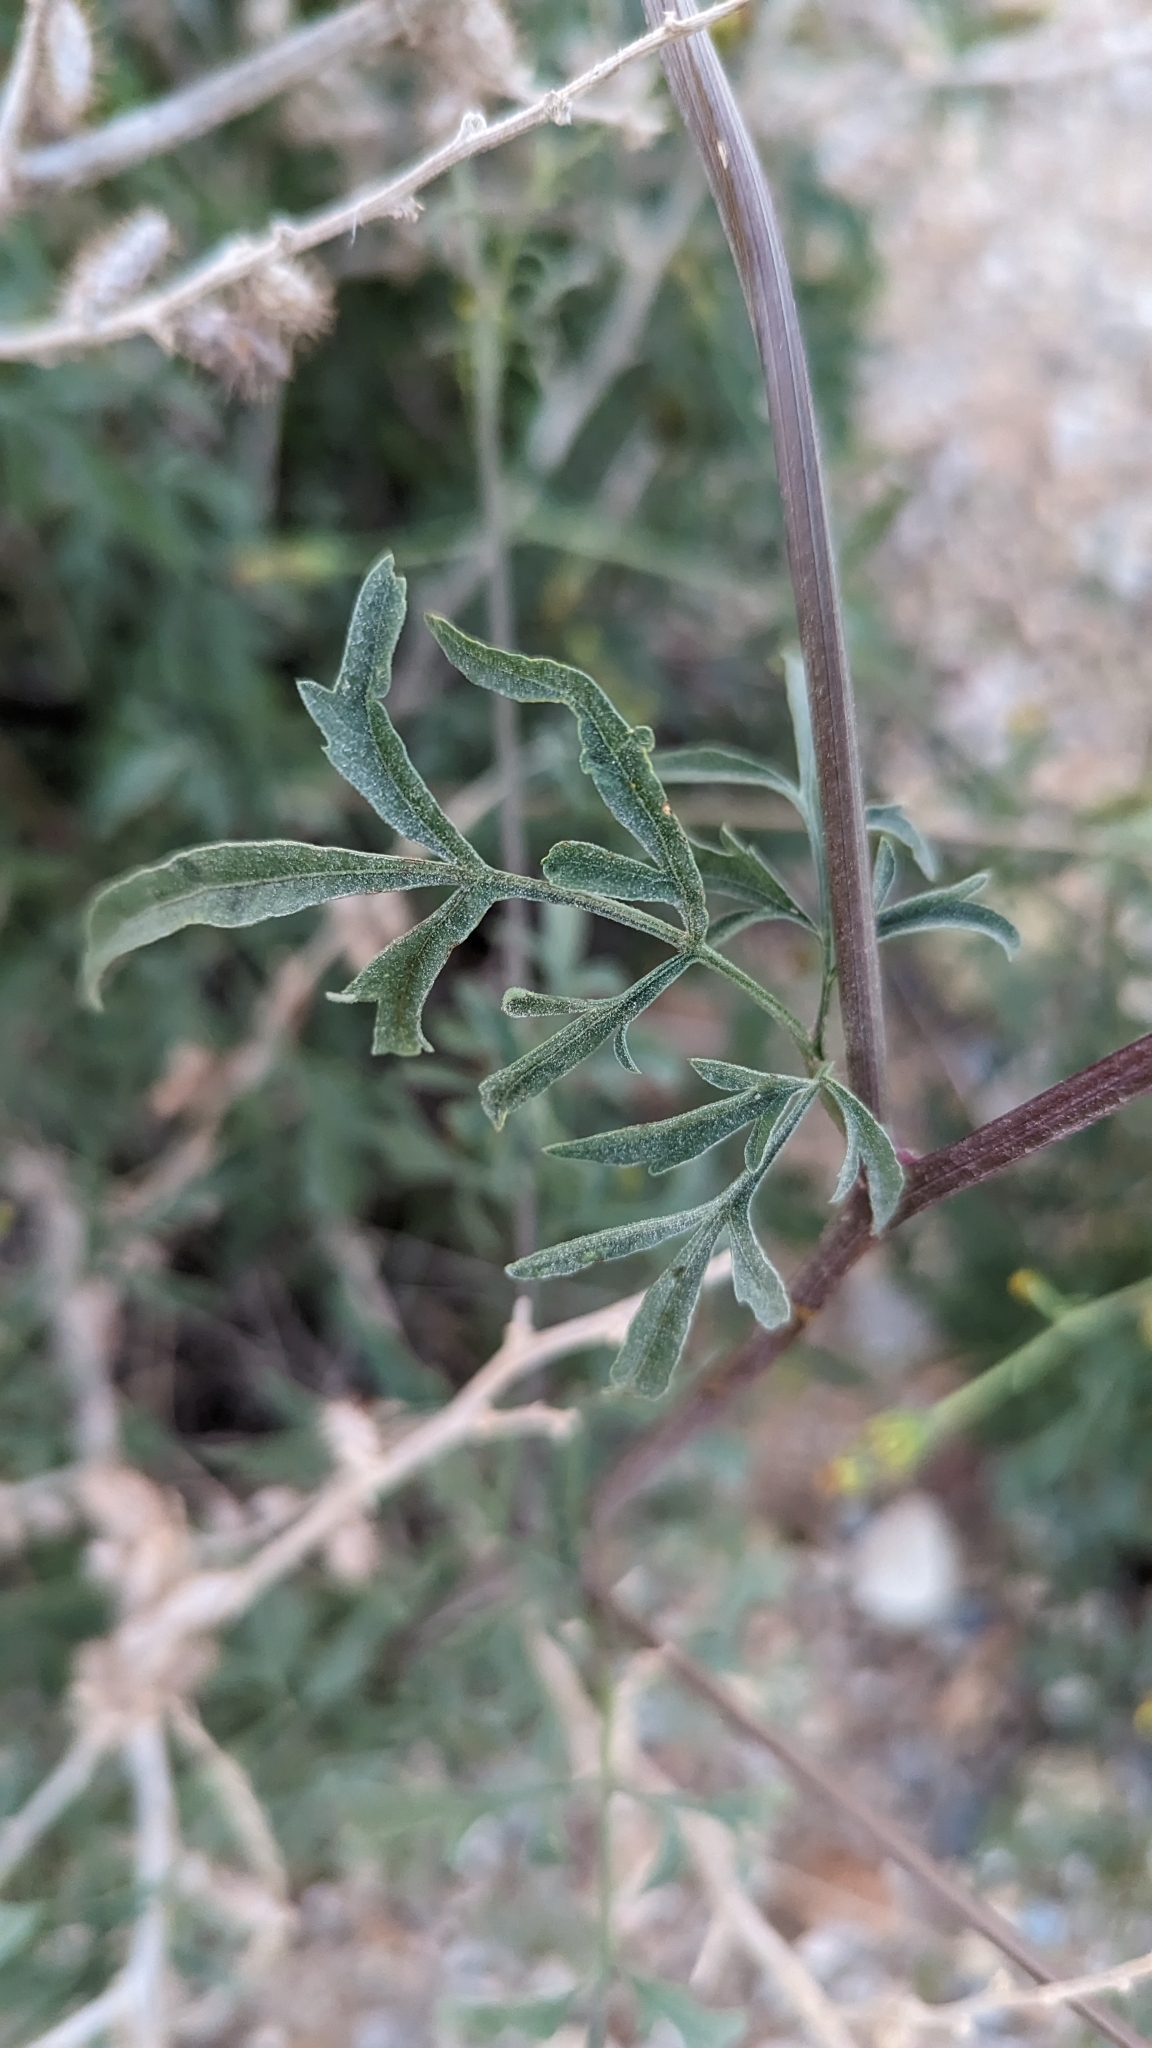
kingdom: Plantae
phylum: Tracheophyta
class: Magnoliopsida
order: Asterales
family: Asteraceae
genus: Bidens
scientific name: Bidens subalternans
